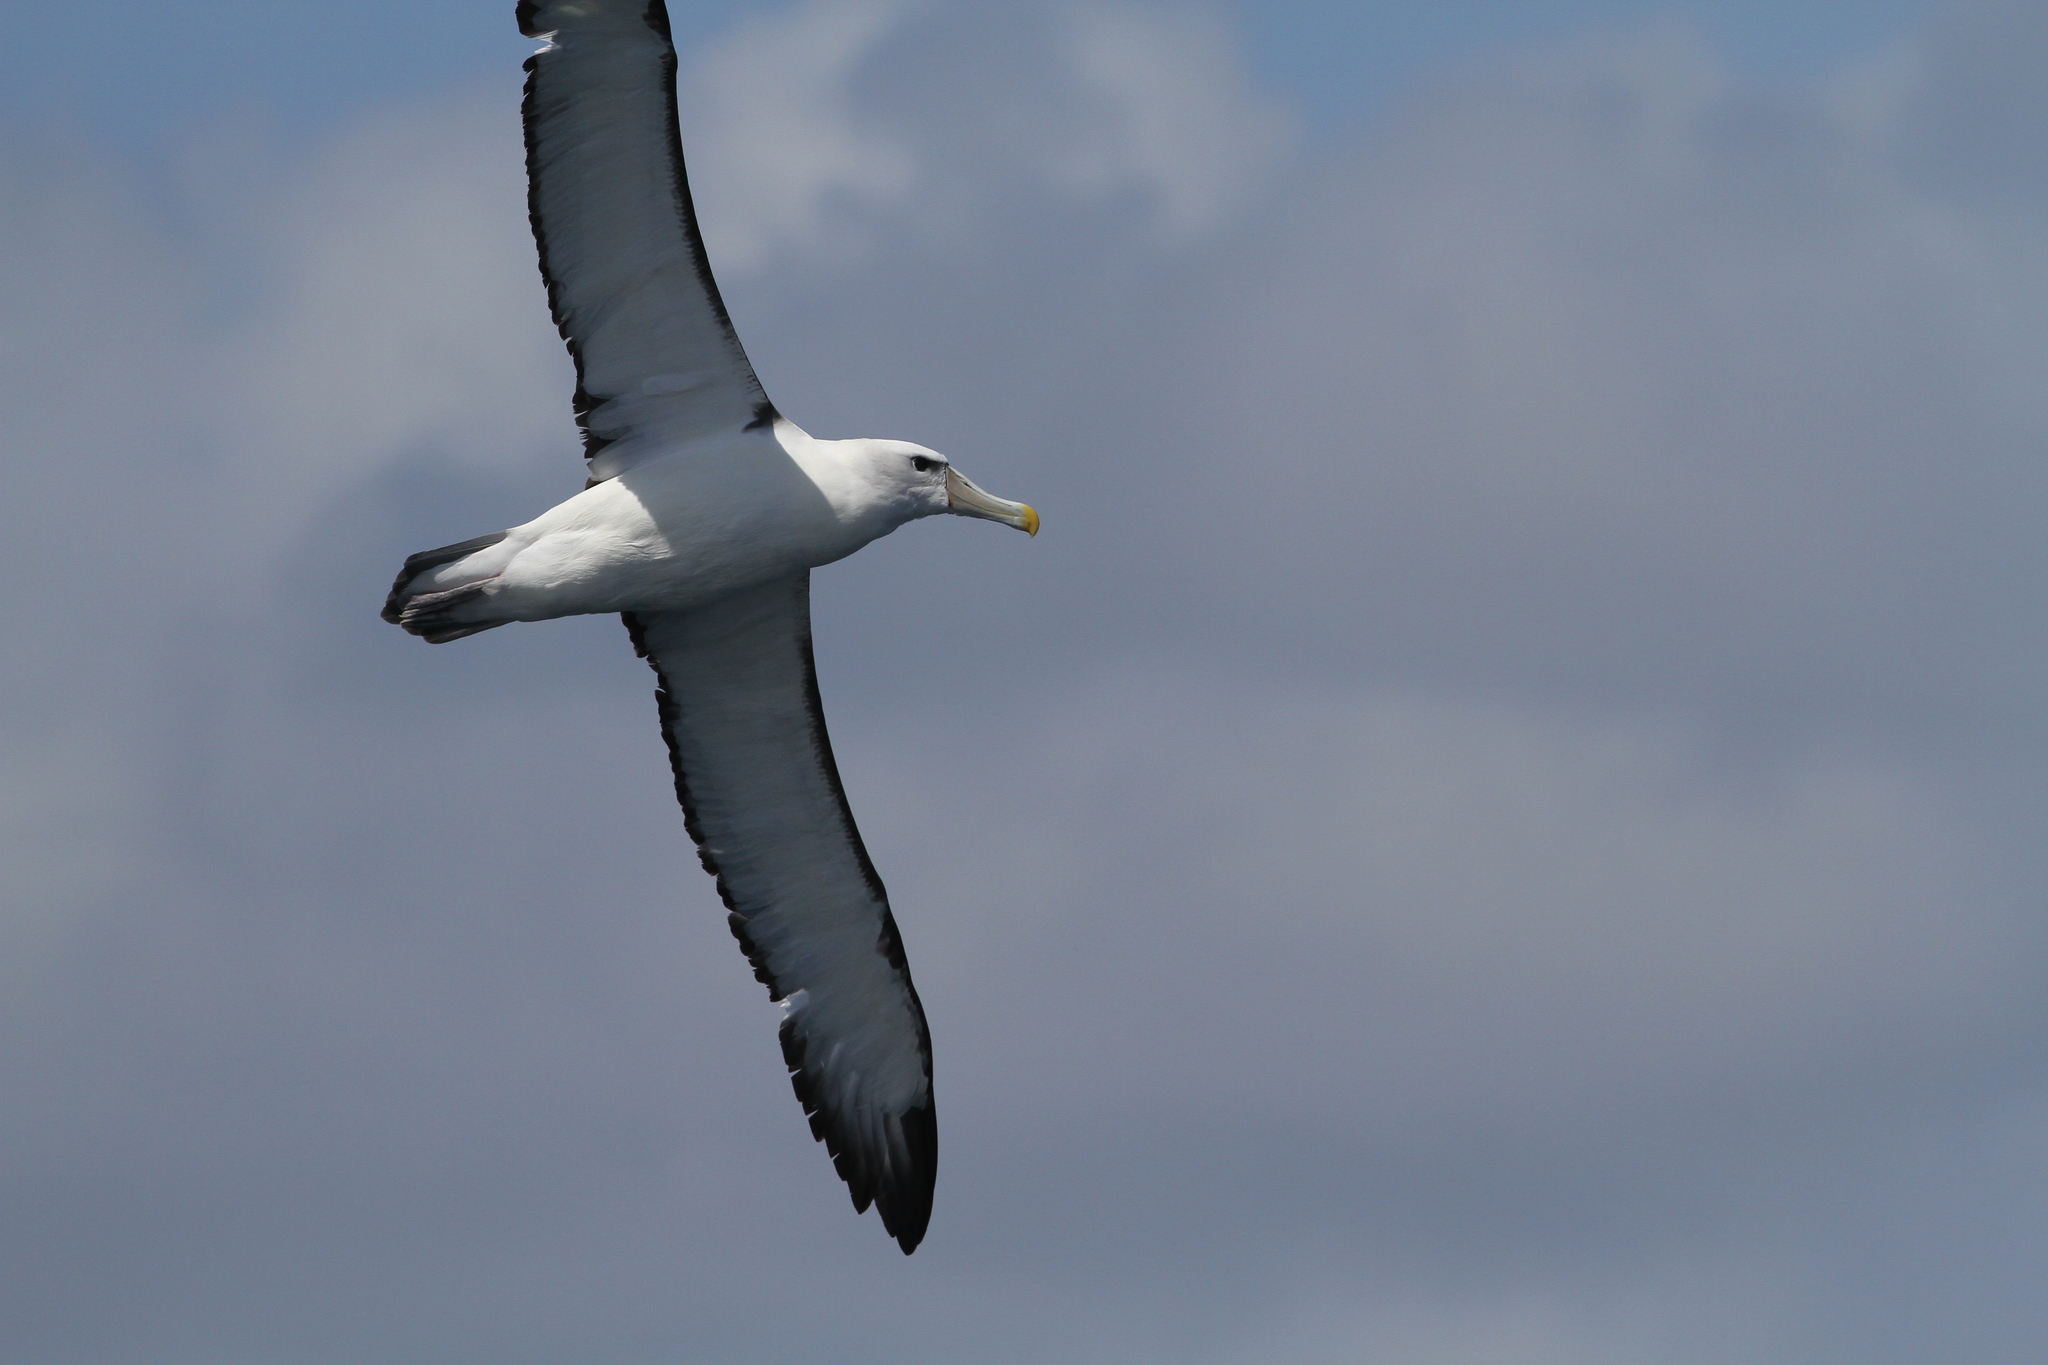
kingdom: Animalia
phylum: Chordata
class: Aves
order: Procellariiformes
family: Diomedeidae
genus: Thalassarche
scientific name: Thalassarche cauta
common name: Shy albatross
